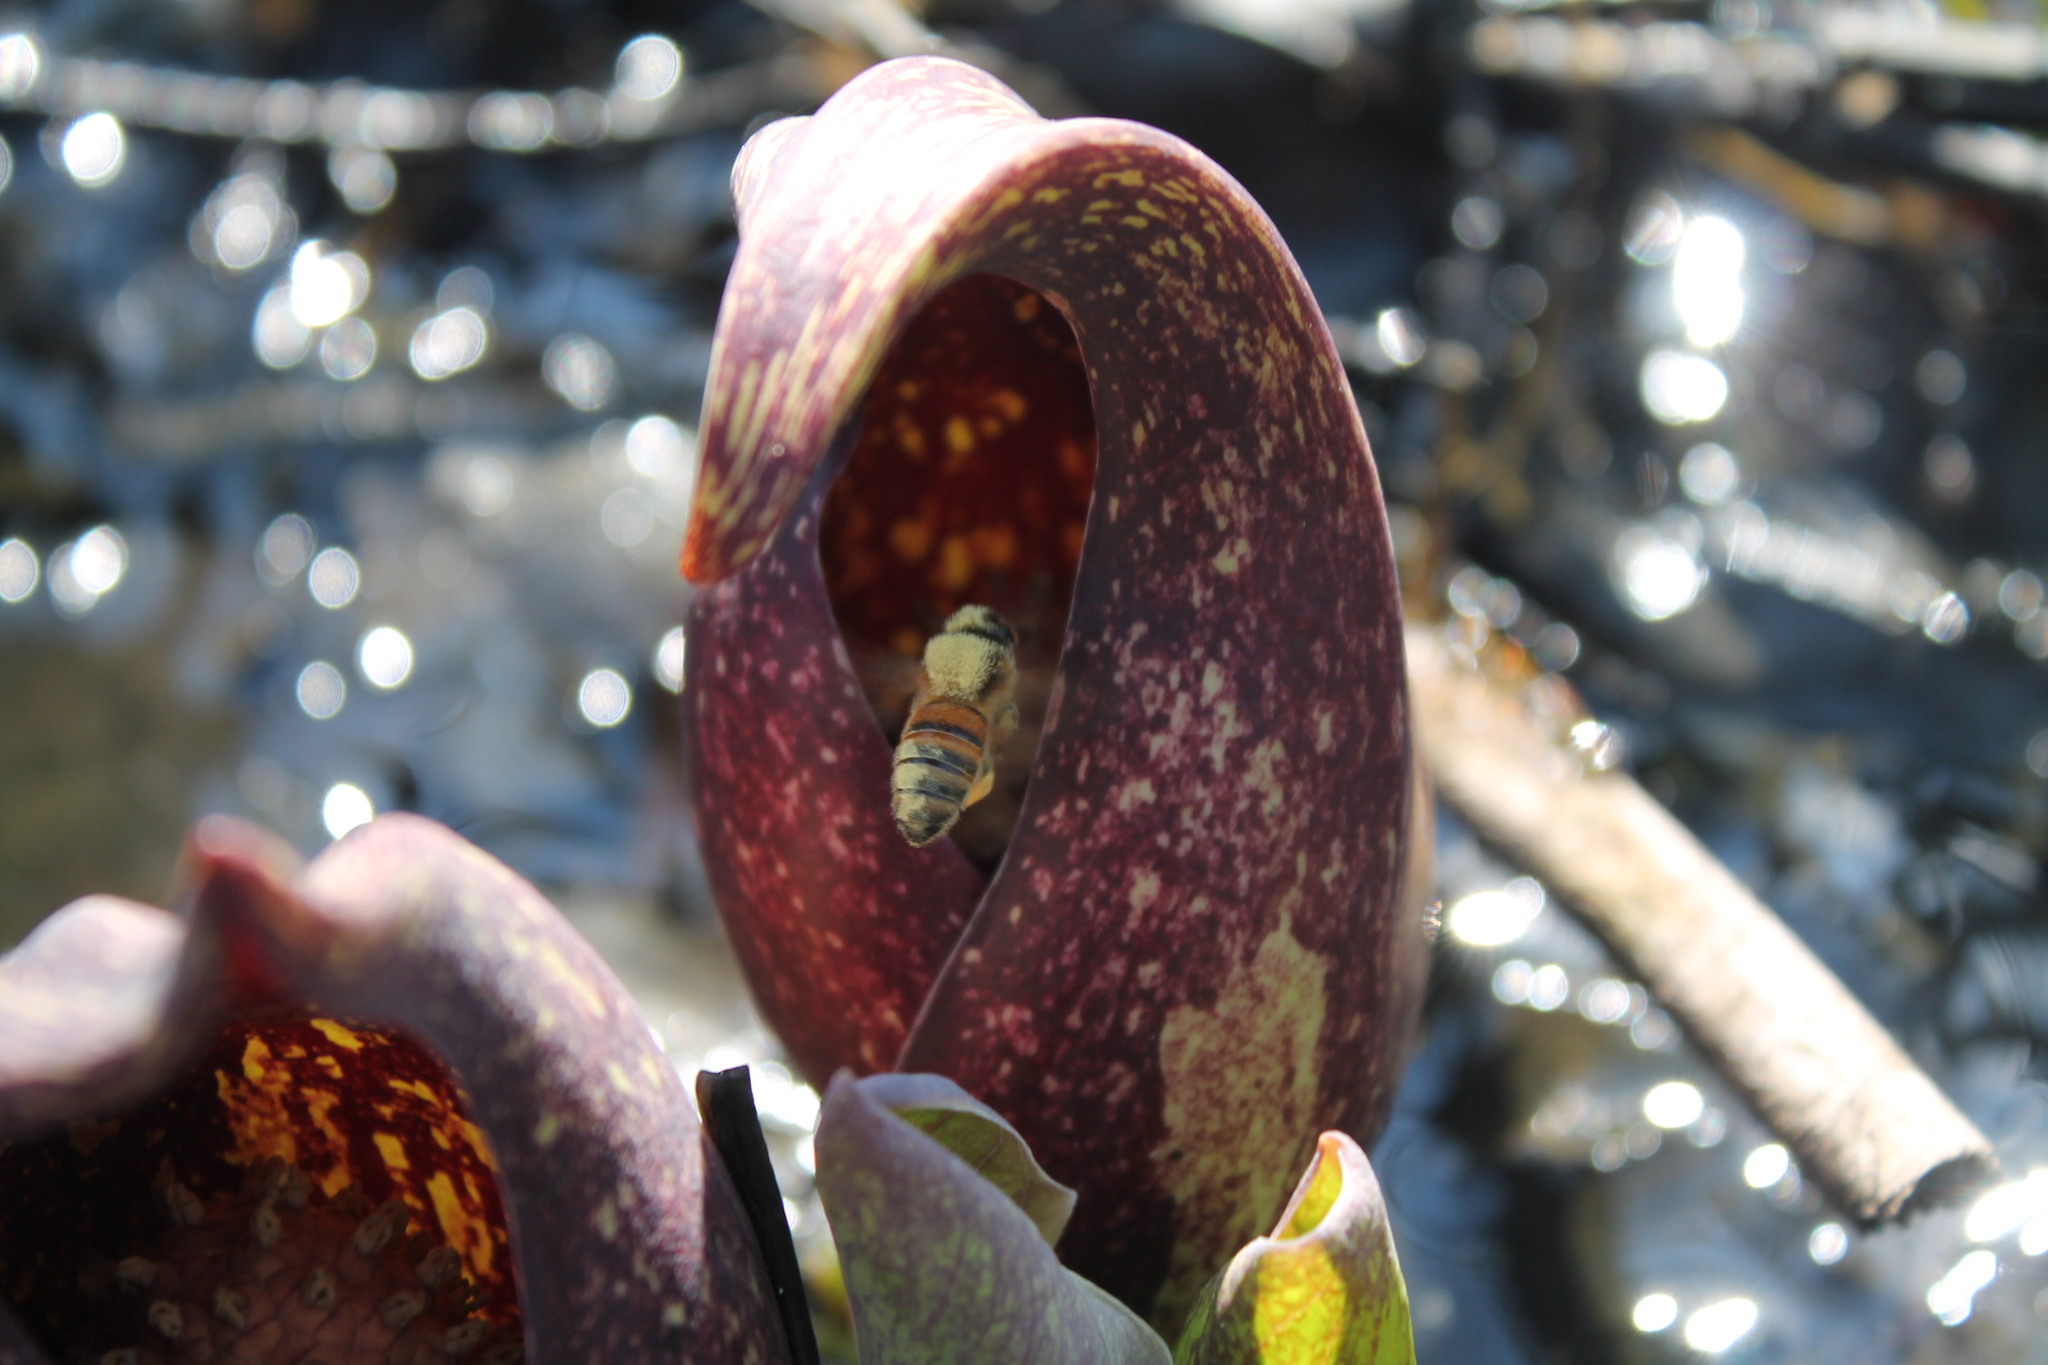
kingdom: Animalia
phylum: Arthropoda
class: Insecta
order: Hymenoptera
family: Apidae
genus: Apis
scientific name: Apis mellifera
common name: Honey bee
